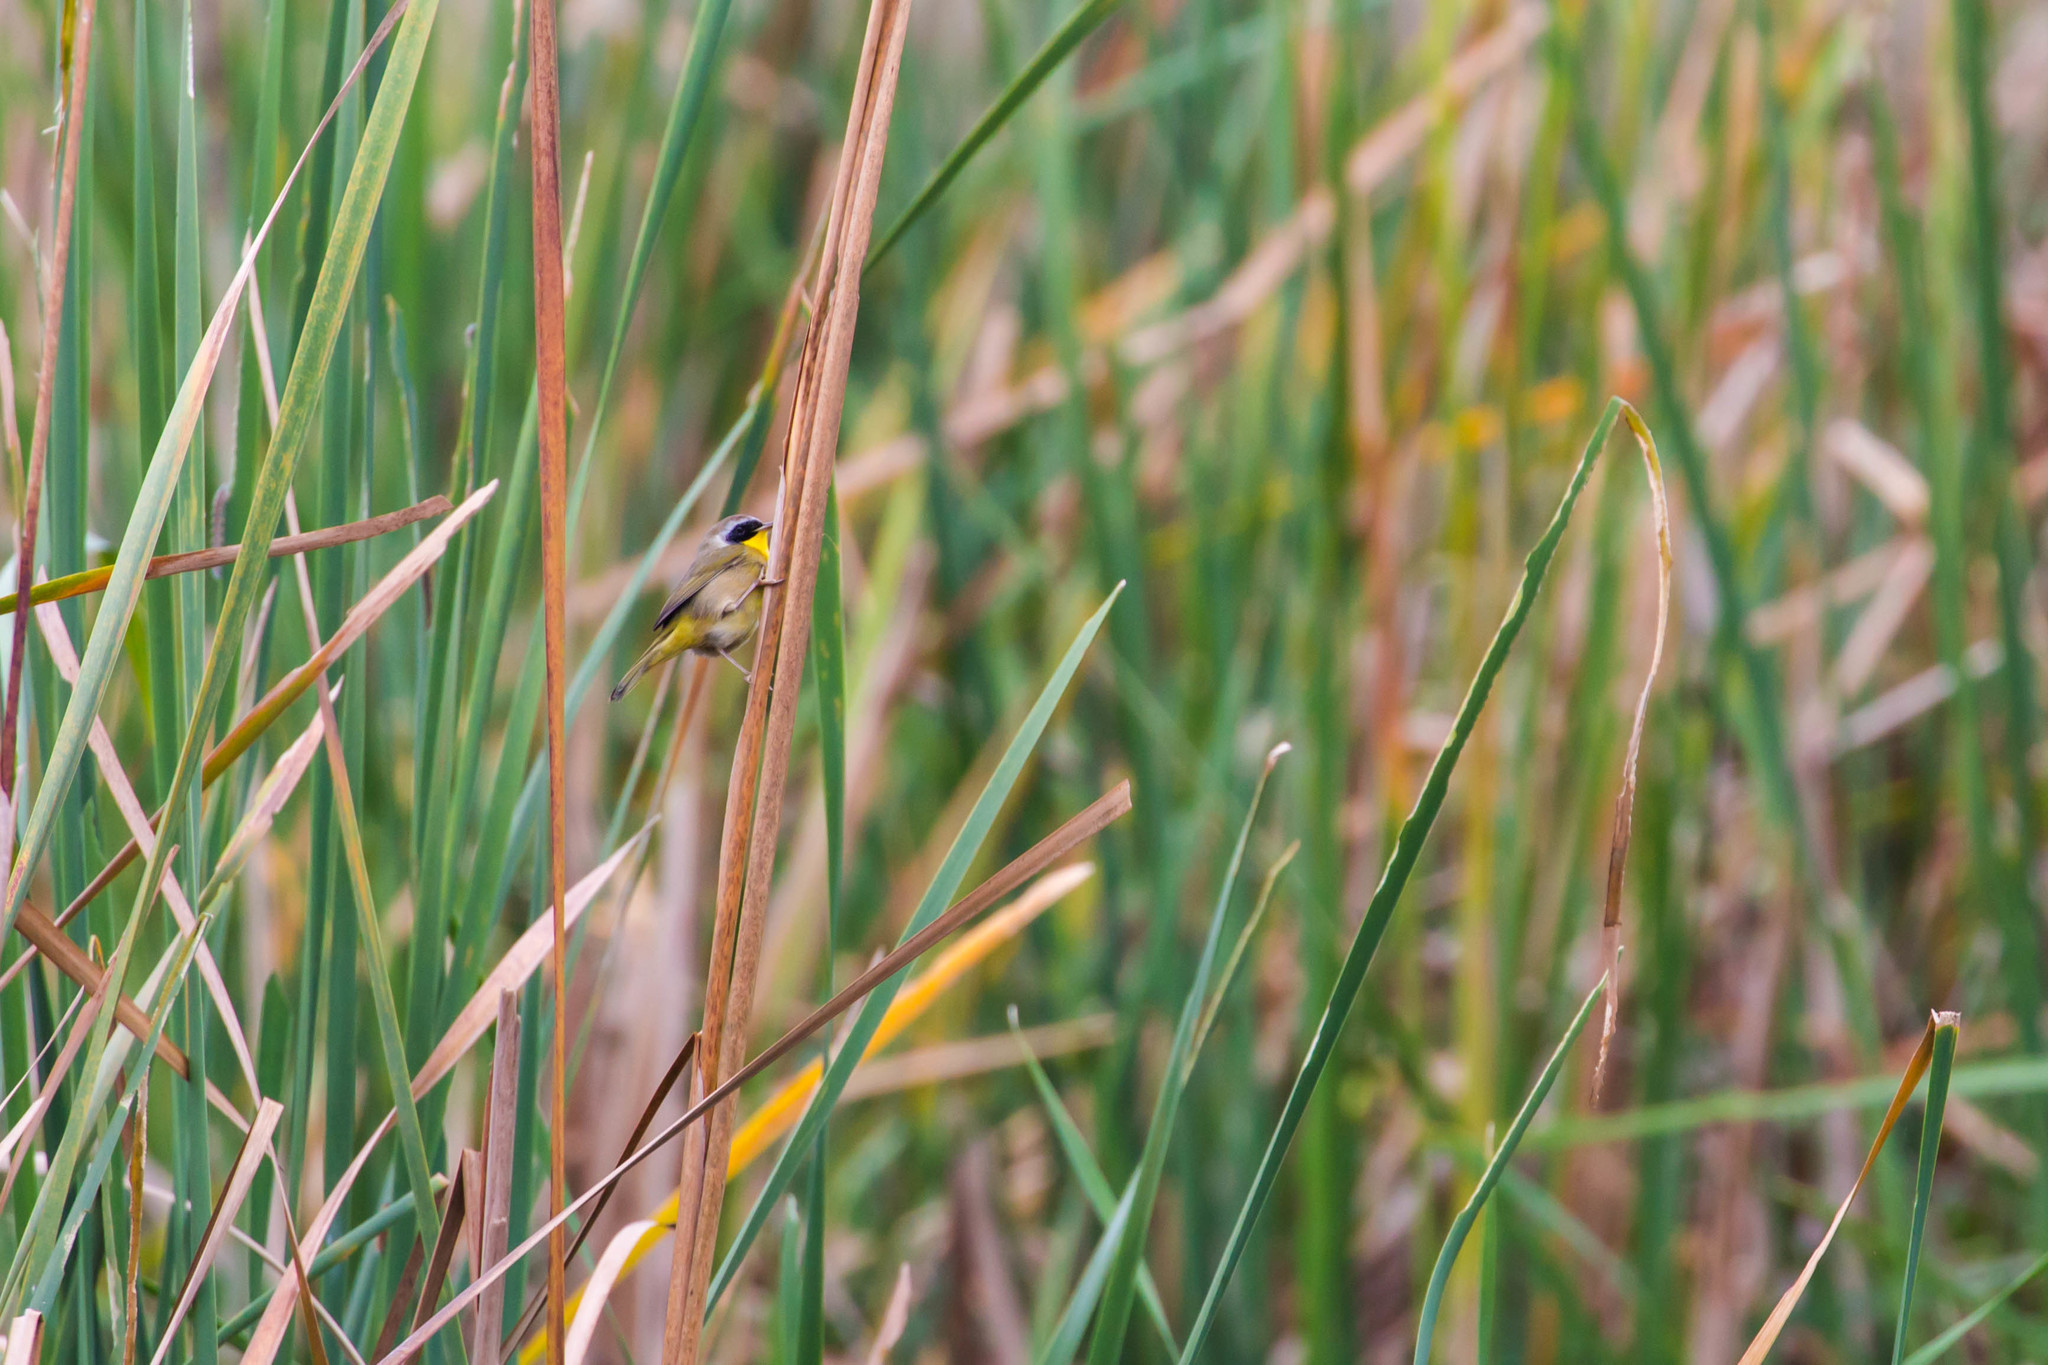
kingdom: Animalia
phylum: Chordata
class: Aves
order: Passeriformes
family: Parulidae
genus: Geothlypis
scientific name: Geothlypis trichas
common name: Common yellowthroat
